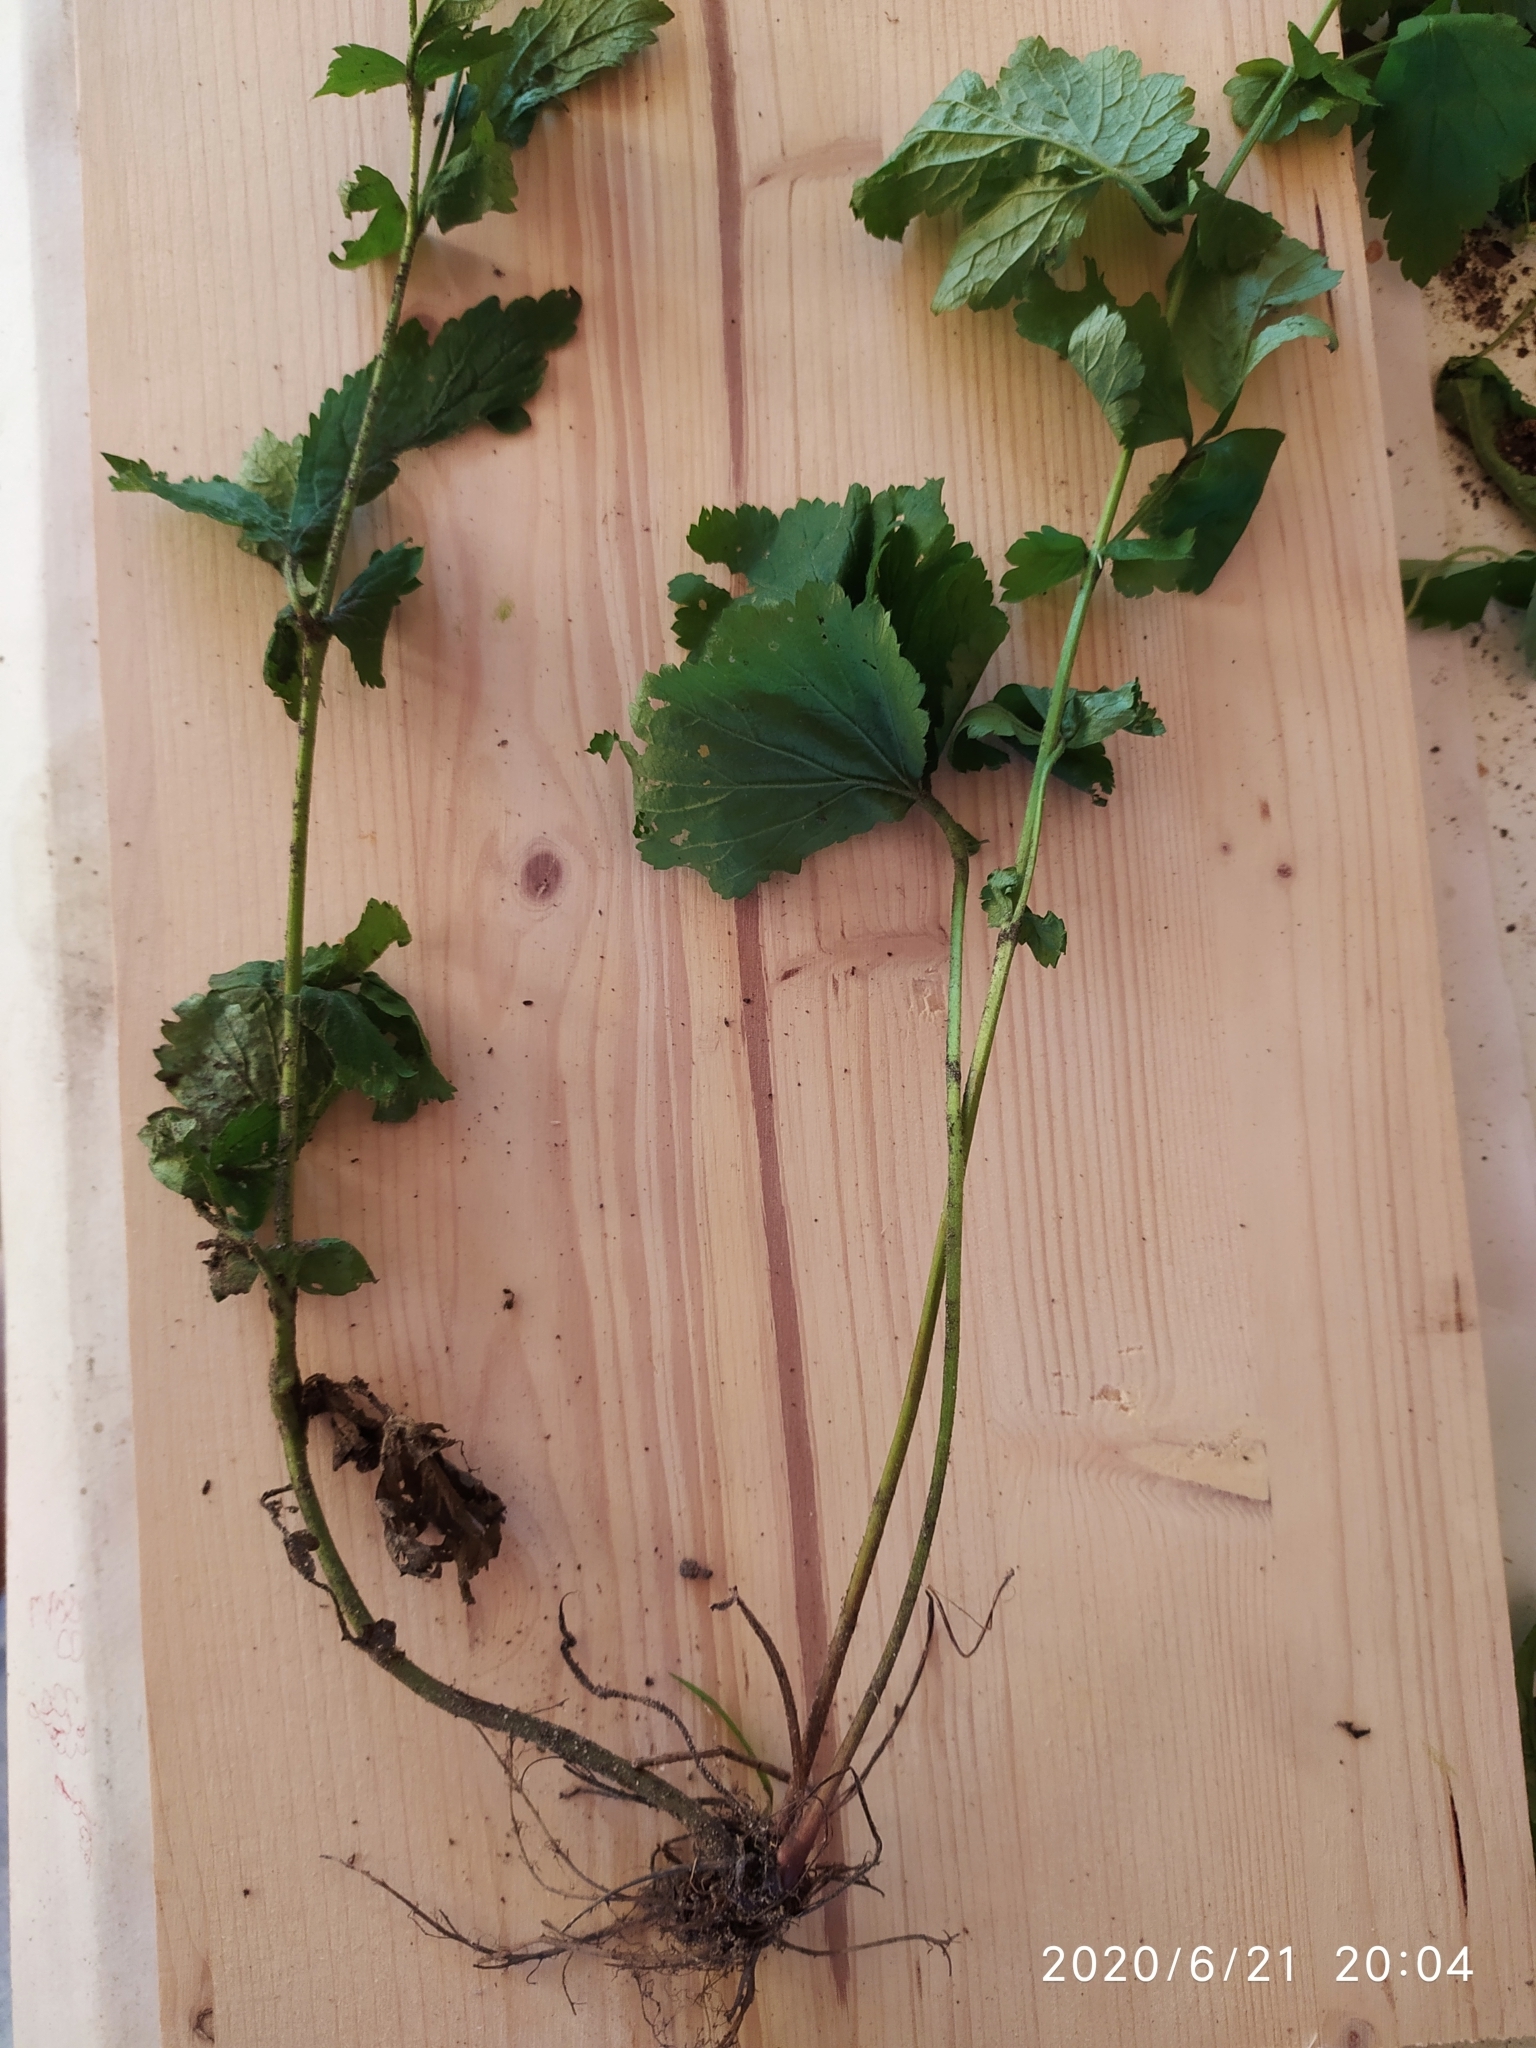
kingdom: Plantae
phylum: Tracheophyta
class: Magnoliopsida
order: Rosales
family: Rosaceae
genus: Geum
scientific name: Geum urbanum
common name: Wood avens
